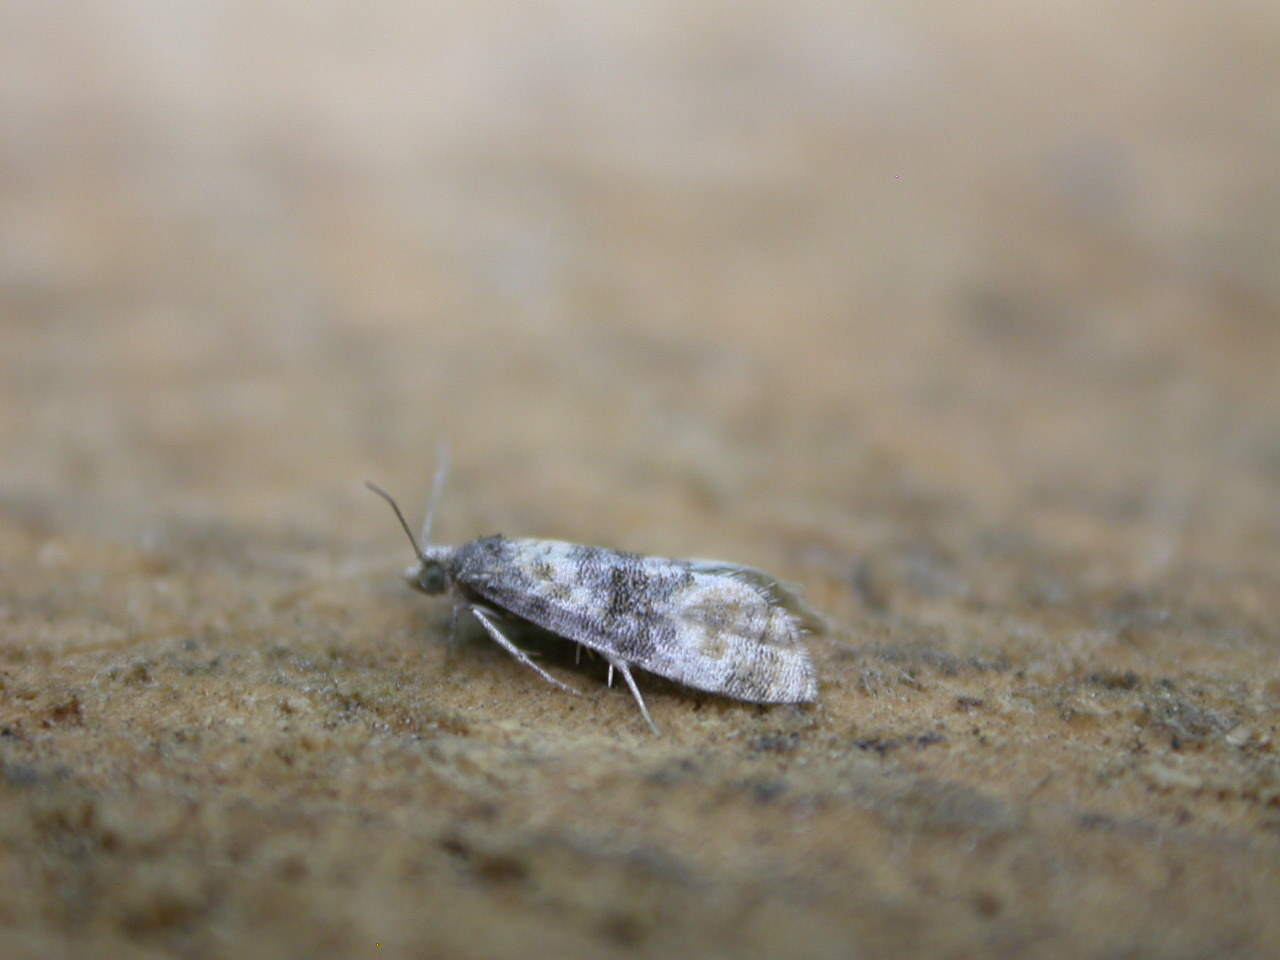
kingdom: Animalia
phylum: Arthropoda
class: Insecta
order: Lepidoptera
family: Tortricidae
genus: Thyraylia
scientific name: Thyraylia nana
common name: Birch conch
